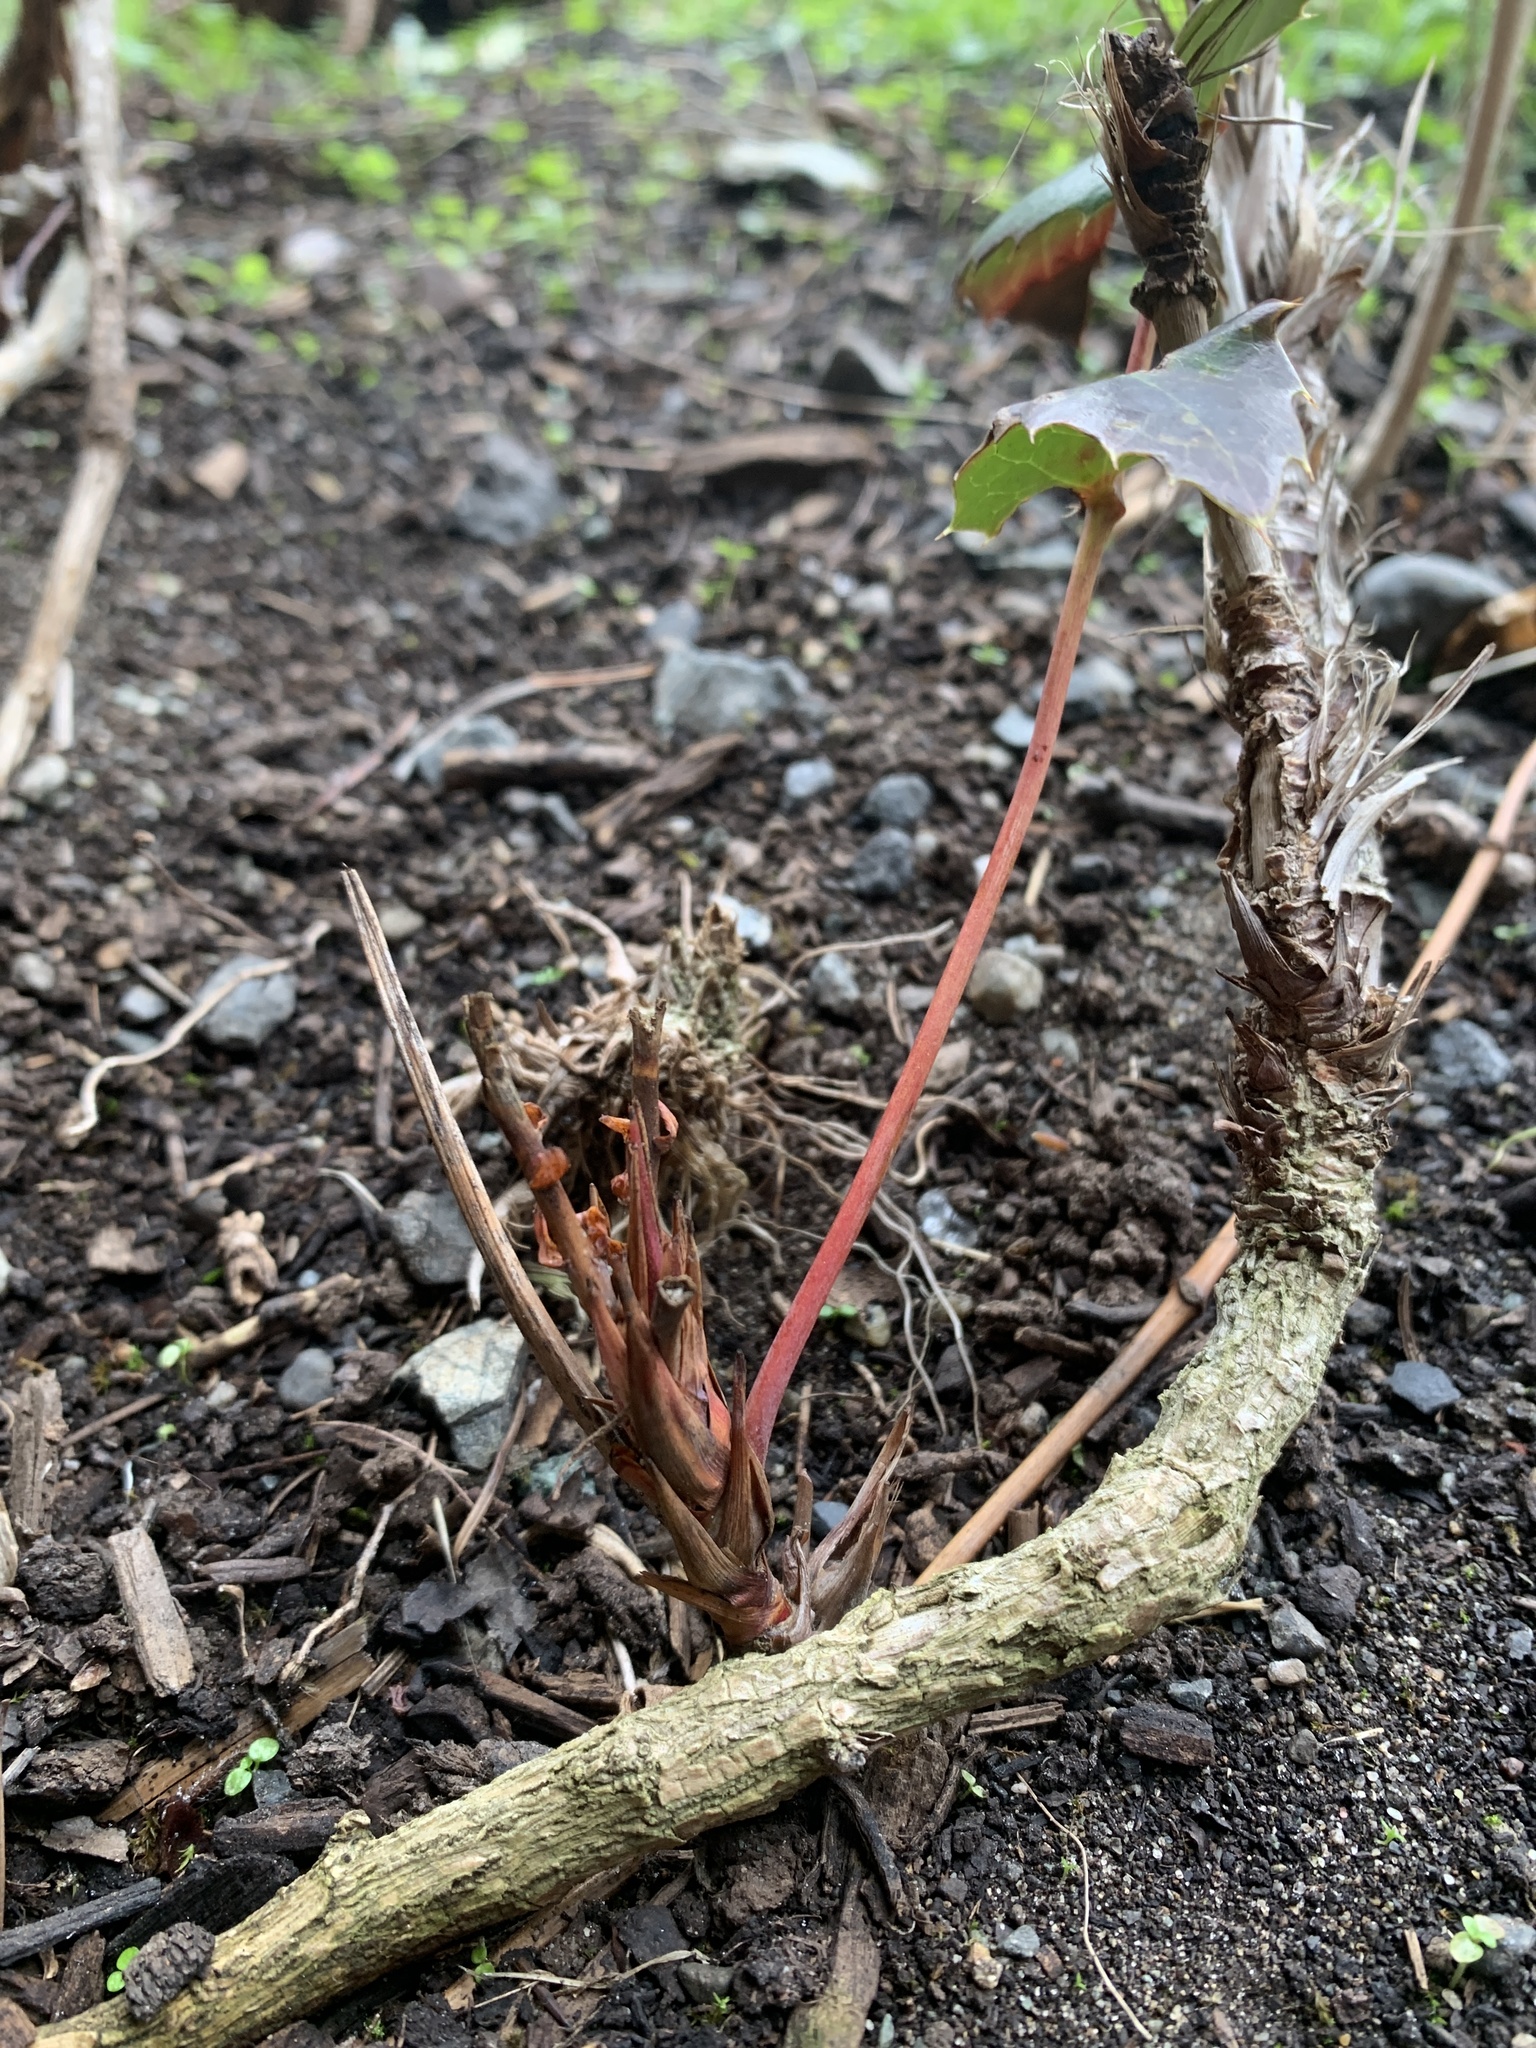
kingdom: Plantae
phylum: Tracheophyta
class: Magnoliopsida
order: Ranunculales
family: Berberidaceae
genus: Mahonia
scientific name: Mahonia nervosa
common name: Cascade oregon-grape
